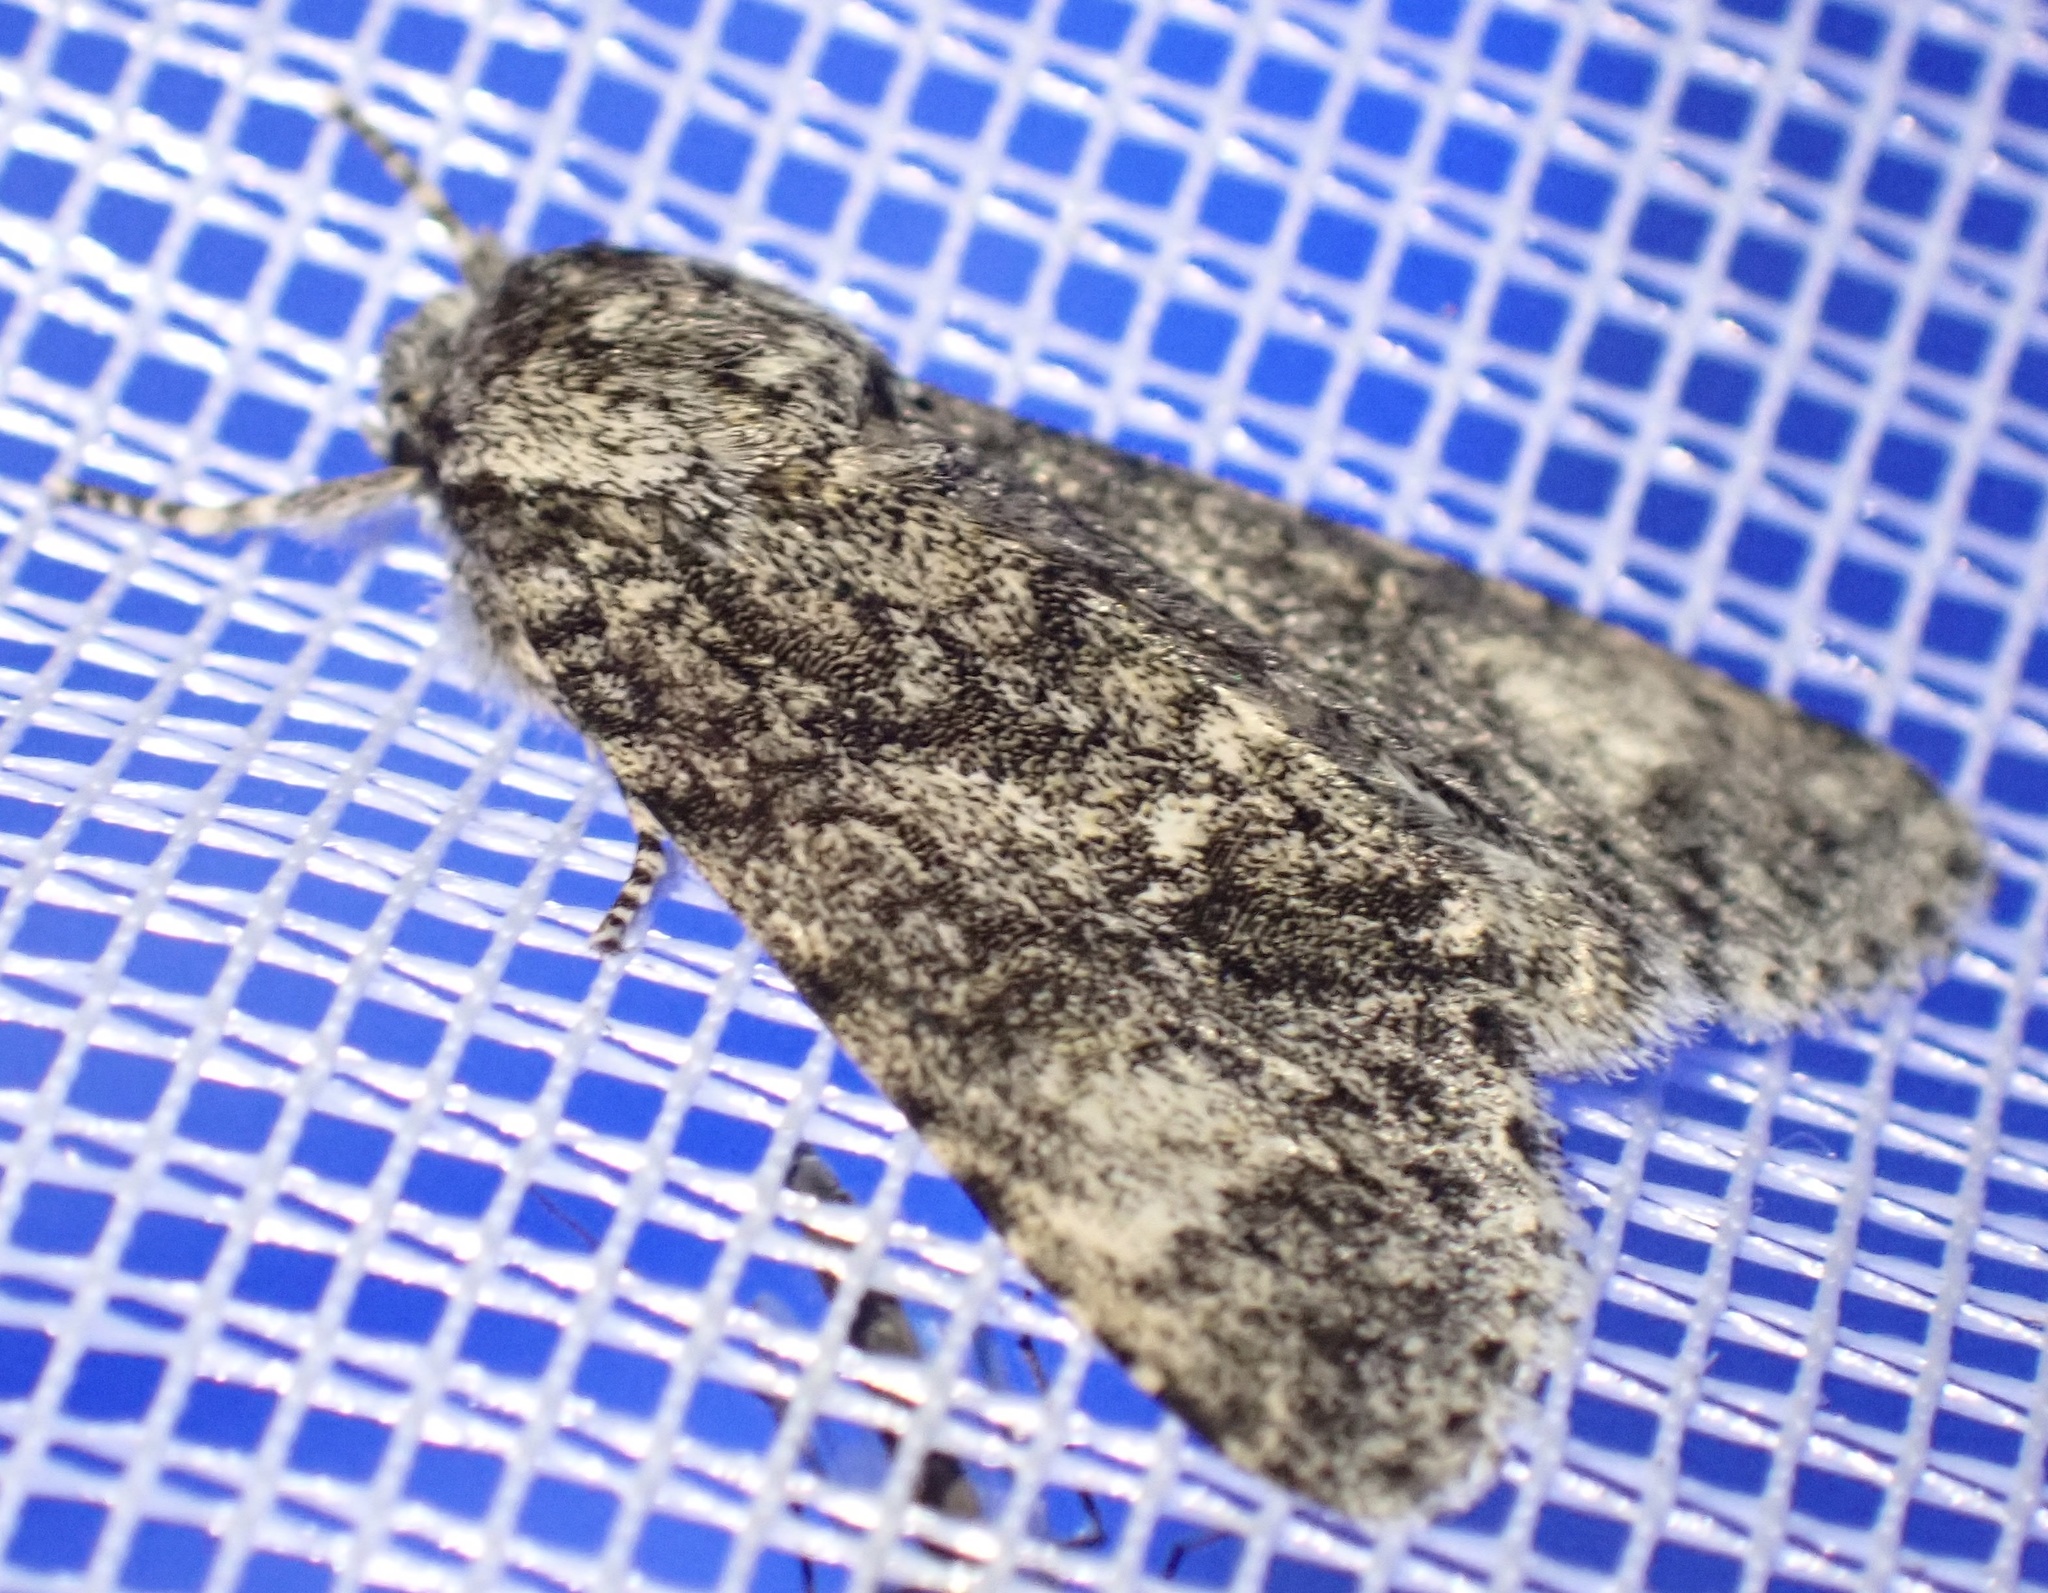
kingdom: Animalia
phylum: Arthropoda
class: Insecta
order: Lepidoptera
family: Noctuidae
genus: Acronicta
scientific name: Acronicta megacephala
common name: Poplar grey
